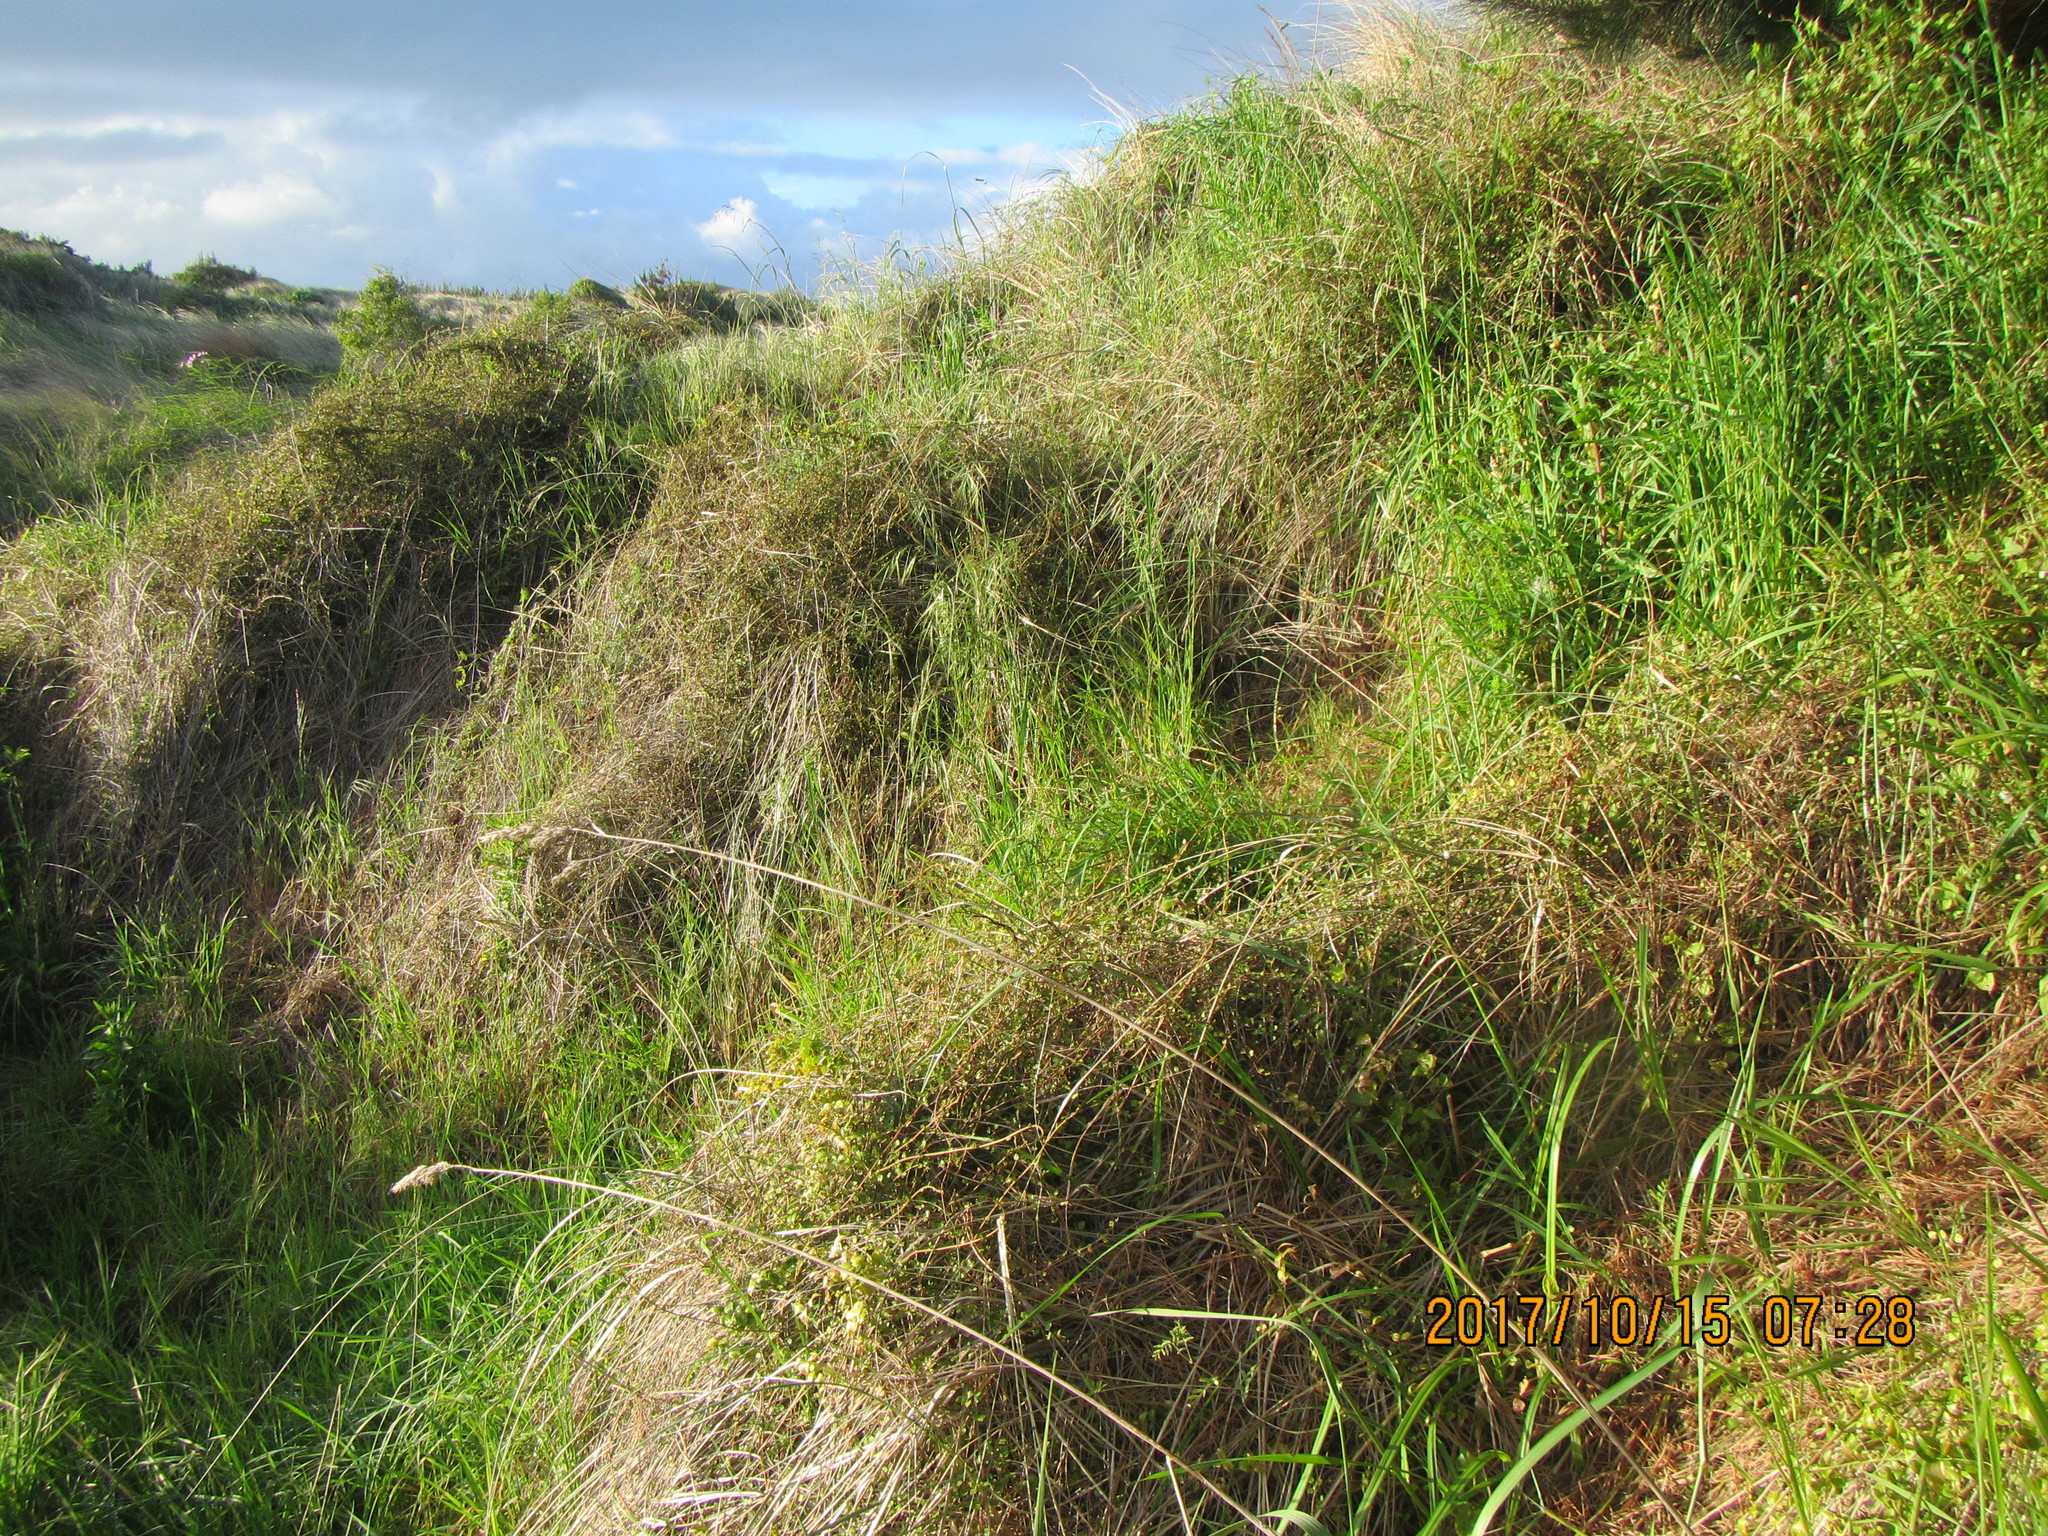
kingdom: Plantae
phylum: Tracheophyta
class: Magnoliopsida
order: Caryophyllales
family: Polygonaceae
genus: Muehlenbeckia
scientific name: Muehlenbeckia complexa
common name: Wireplant
